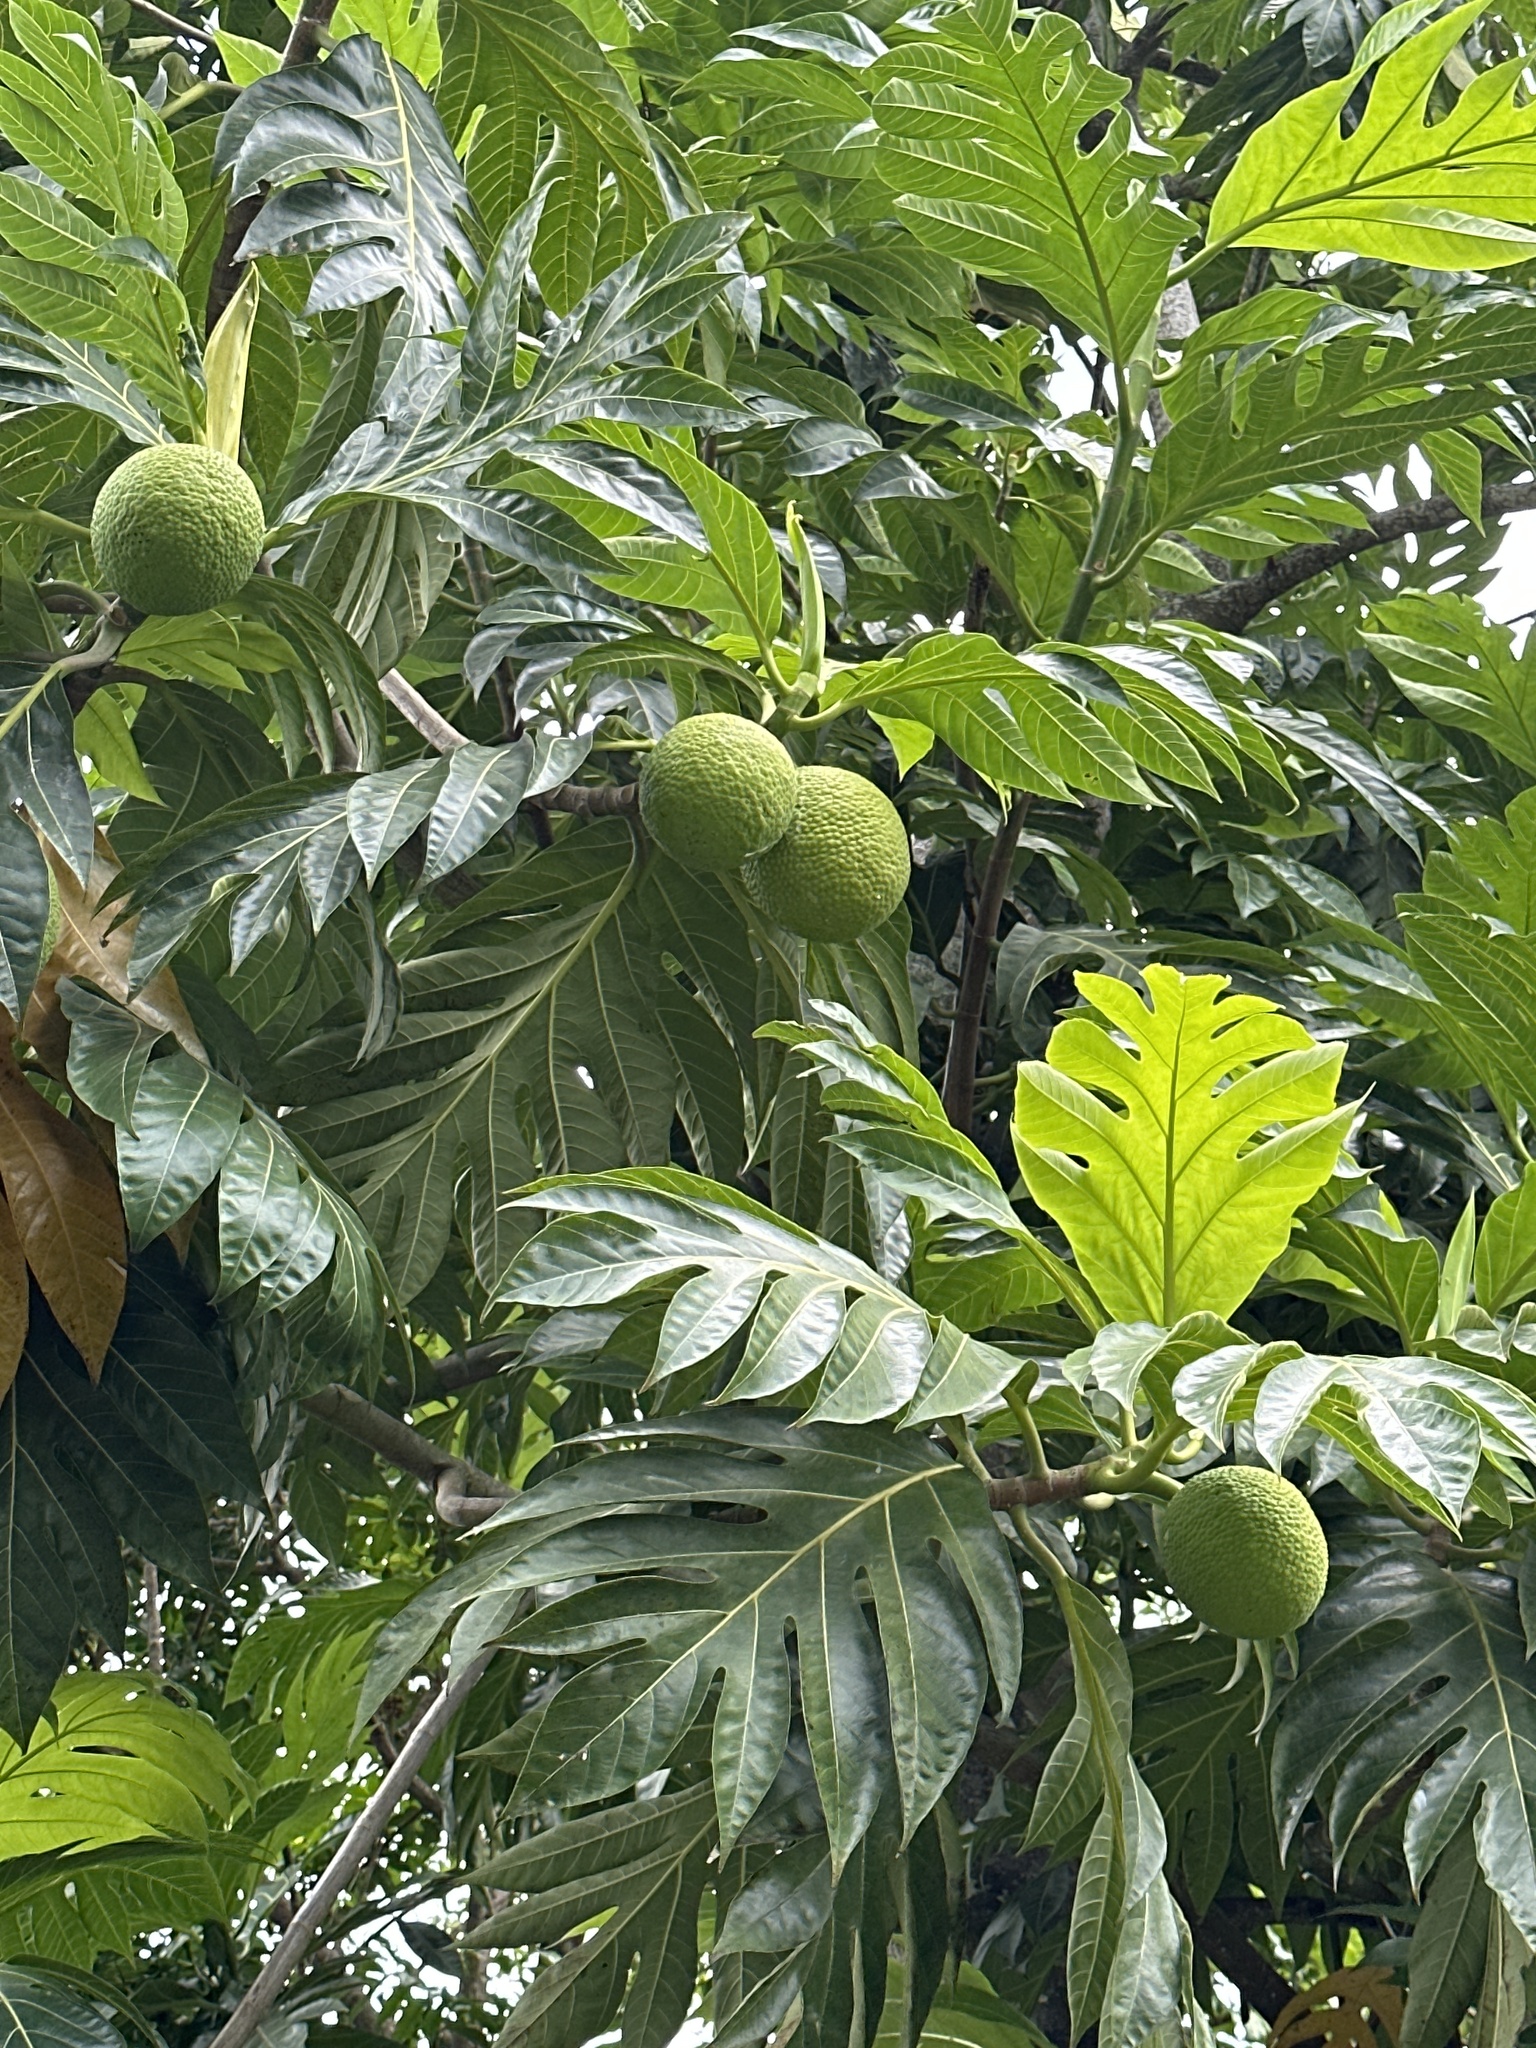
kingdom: Plantae
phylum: Tracheophyta
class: Magnoliopsida
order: Rosales
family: Moraceae
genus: Artocarpus
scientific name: Artocarpus altilis
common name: Breadfruit
